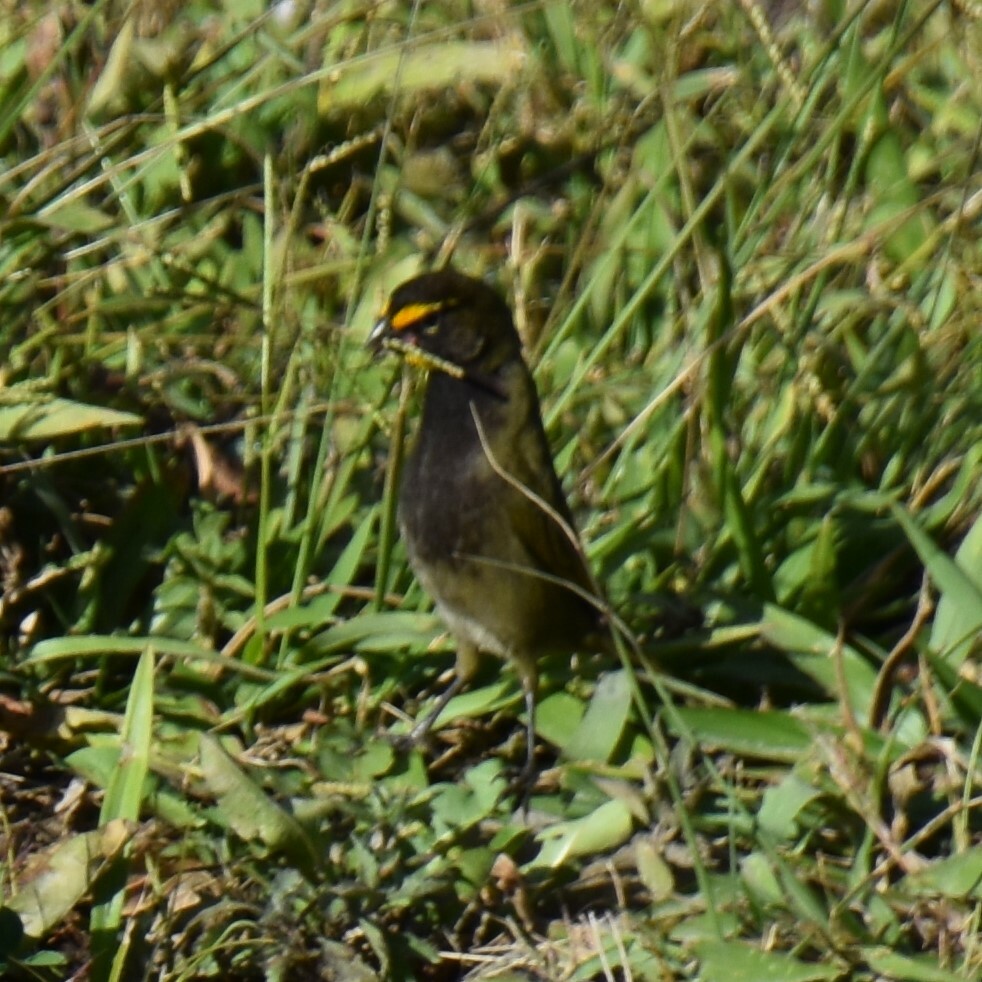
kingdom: Animalia
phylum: Chordata
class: Aves
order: Passeriformes
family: Thraupidae
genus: Tiaris
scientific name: Tiaris olivaceus
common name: Yellow-faced grassquit
